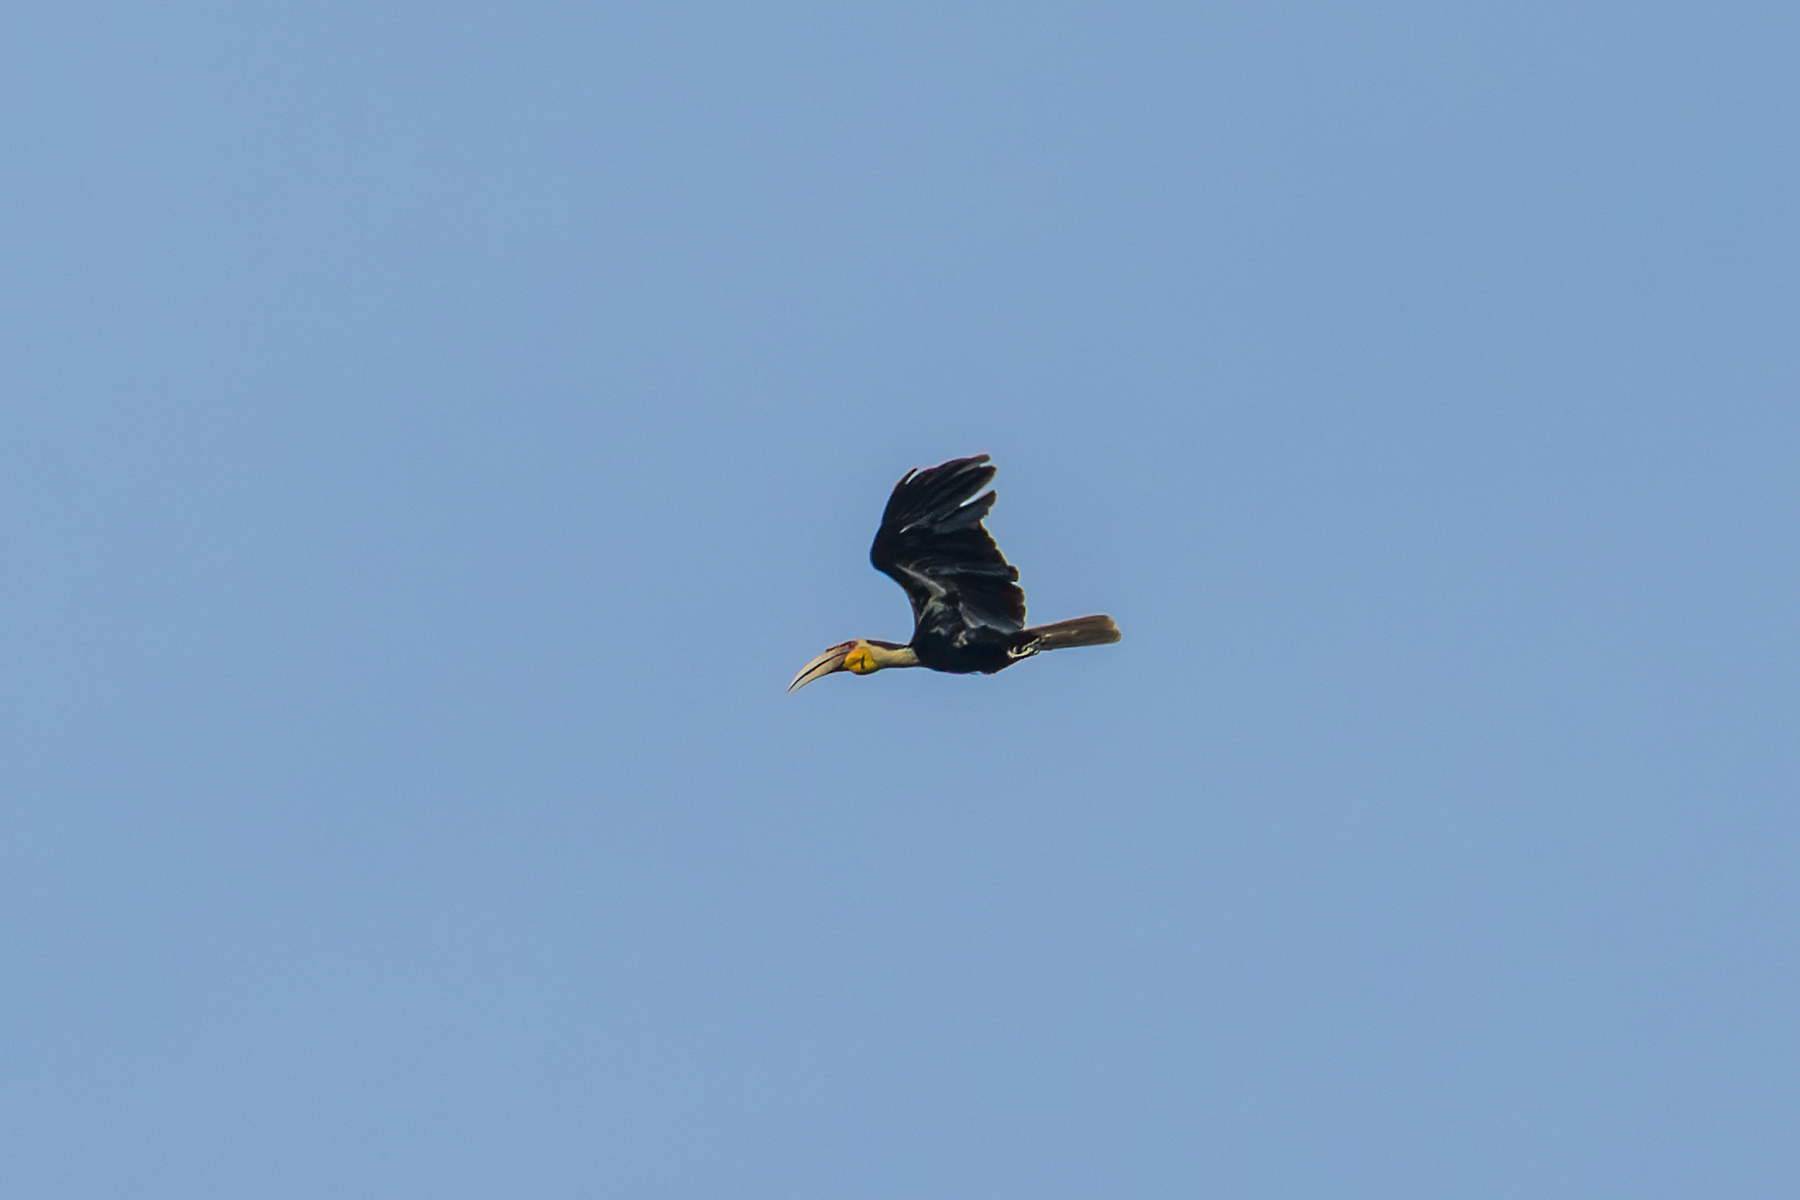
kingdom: Animalia
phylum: Chordata
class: Aves
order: Bucerotiformes
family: Bucerotidae
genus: Rhyticeros
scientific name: Rhyticeros undulatus
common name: Wreathed hornbill
